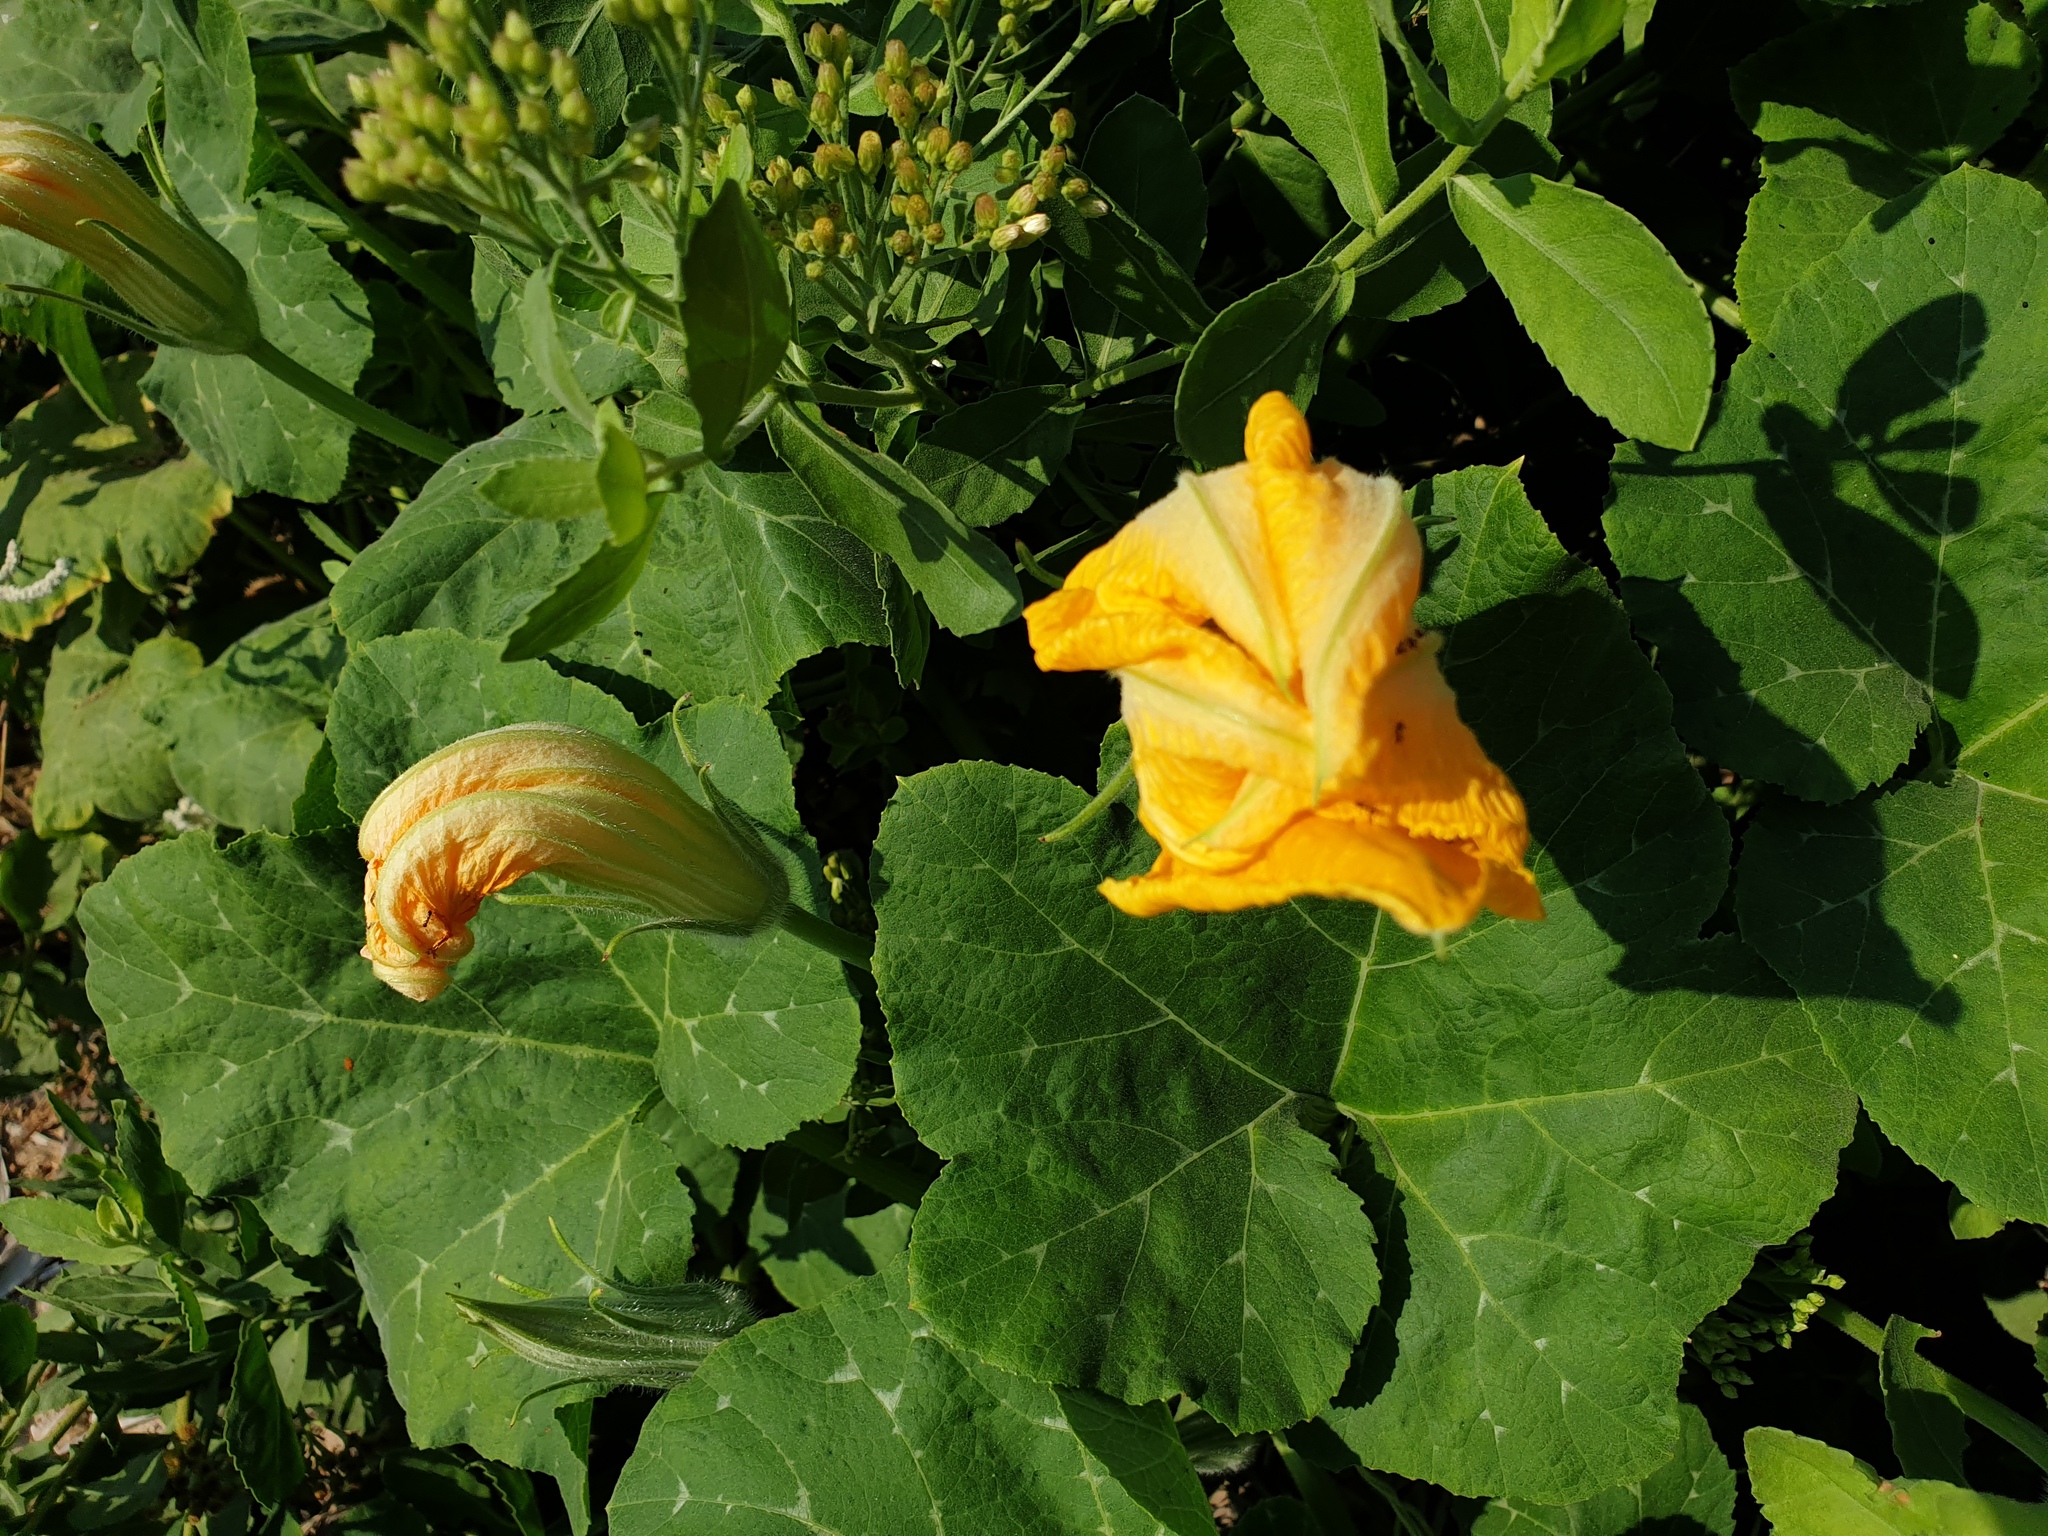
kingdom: Plantae
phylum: Tracheophyta
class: Magnoliopsida
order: Cucurbitales
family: Cucurbitaceae
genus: Cucurbita
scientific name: Cucurbita maxima
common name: Pumpkin
